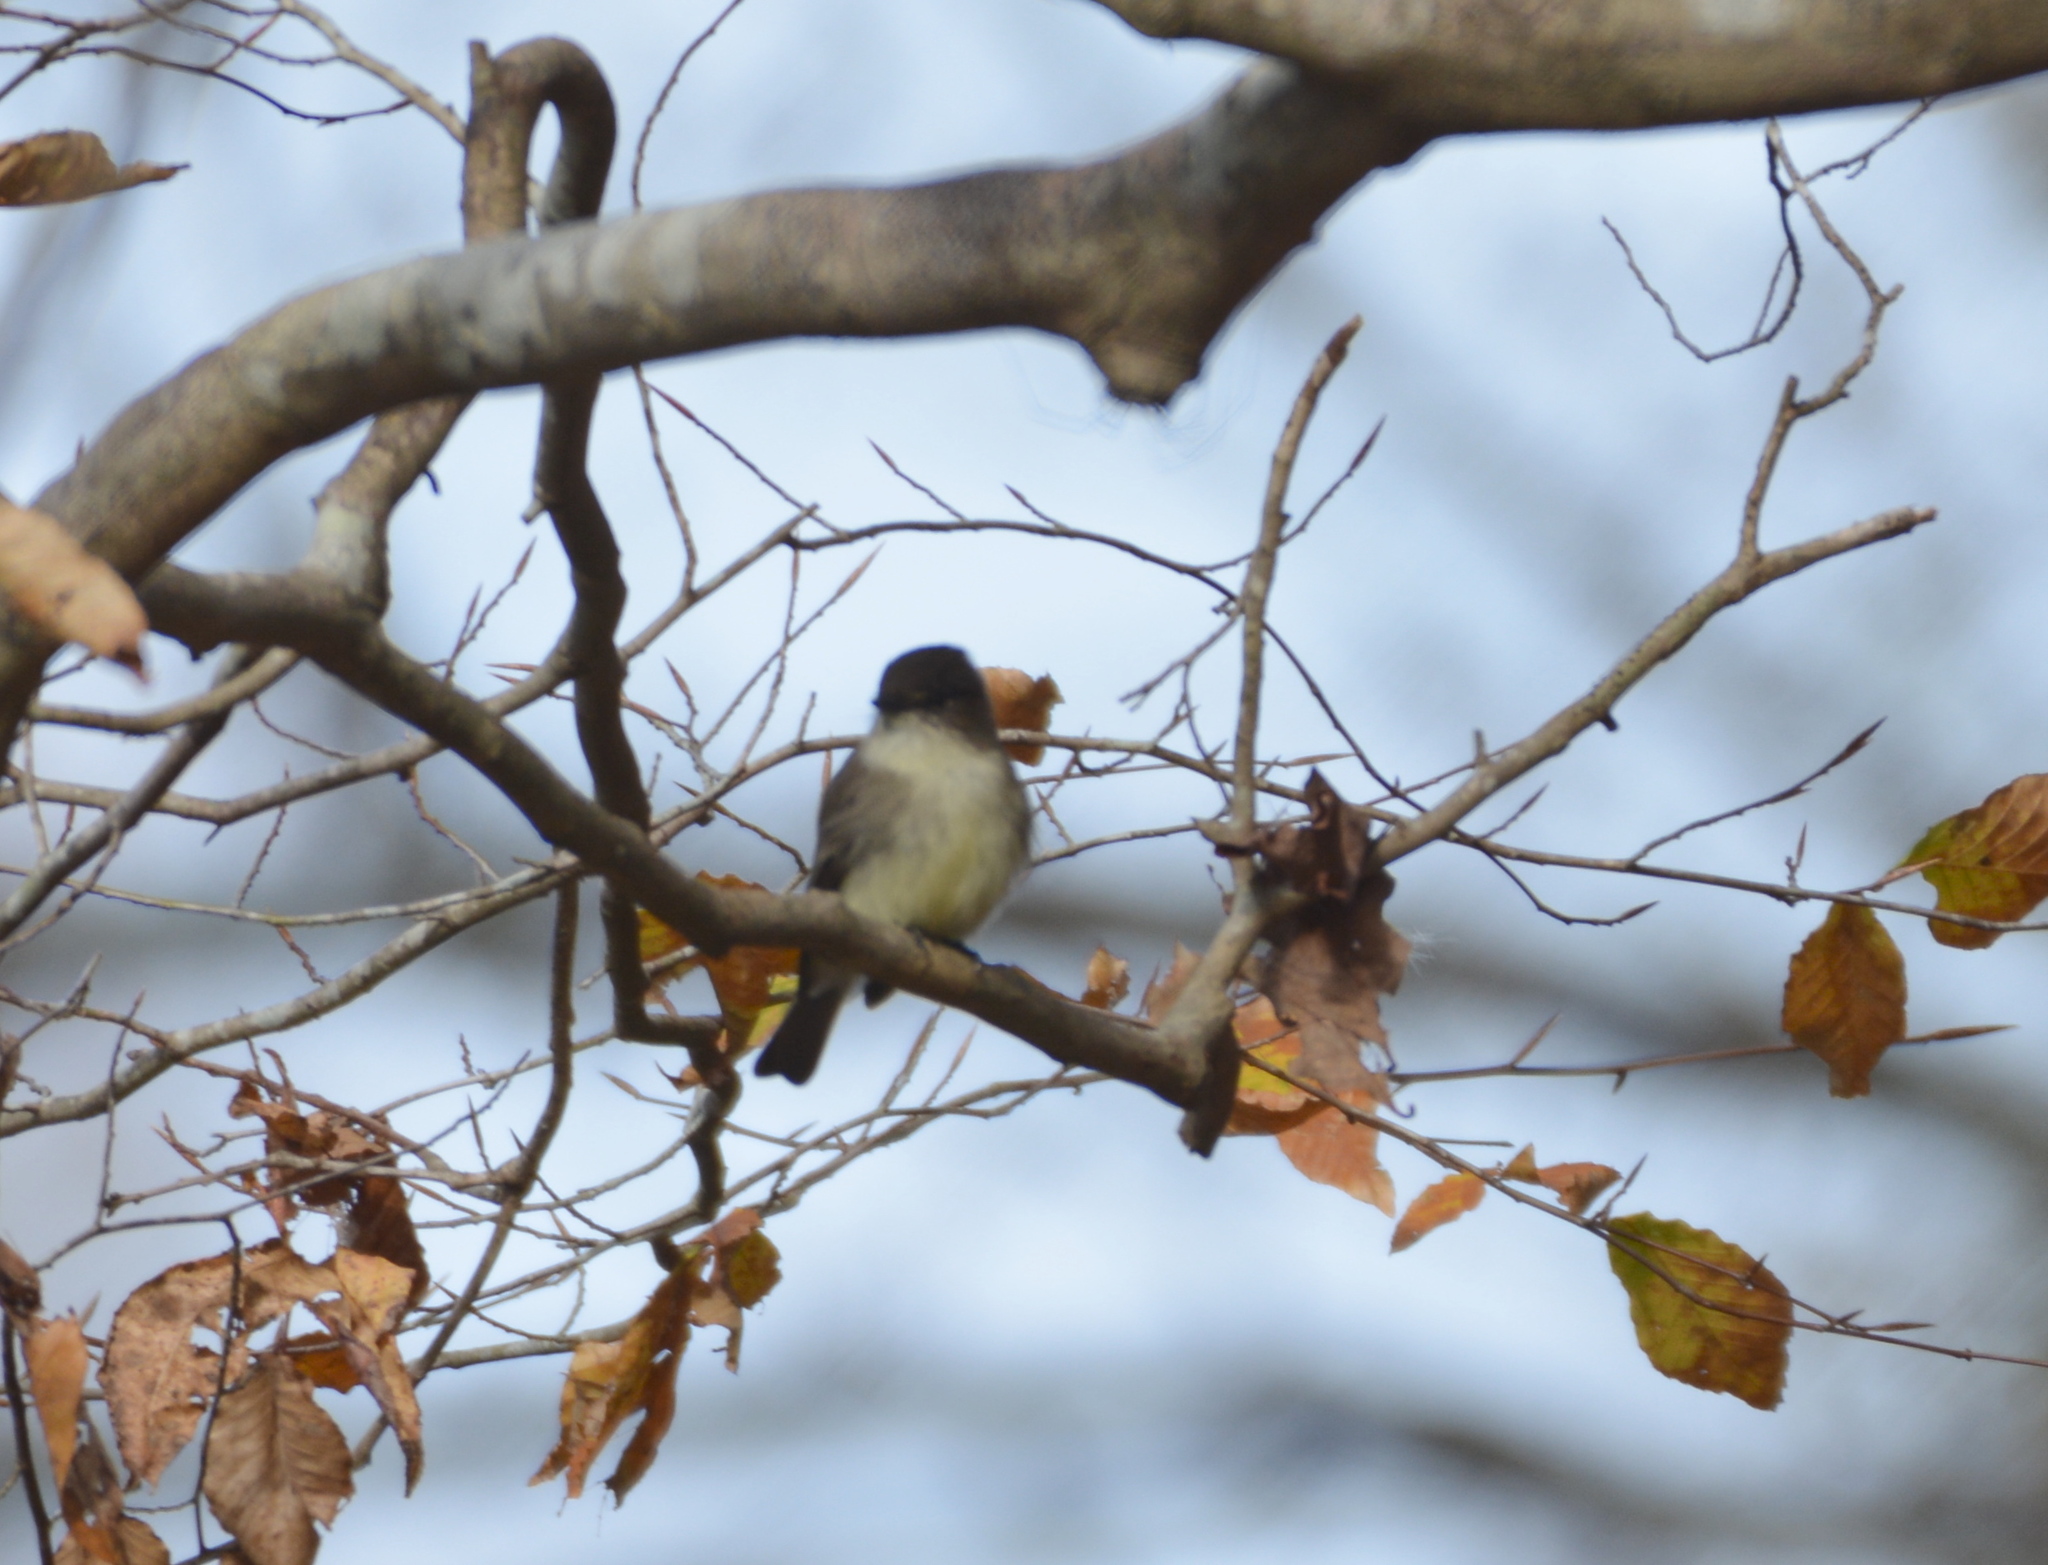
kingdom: Animalia
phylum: Chordata
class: Aves
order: Passeriformes
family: Tyrannidae
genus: Sayornis
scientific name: Sayornis phoebe
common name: Eastern phoebe
